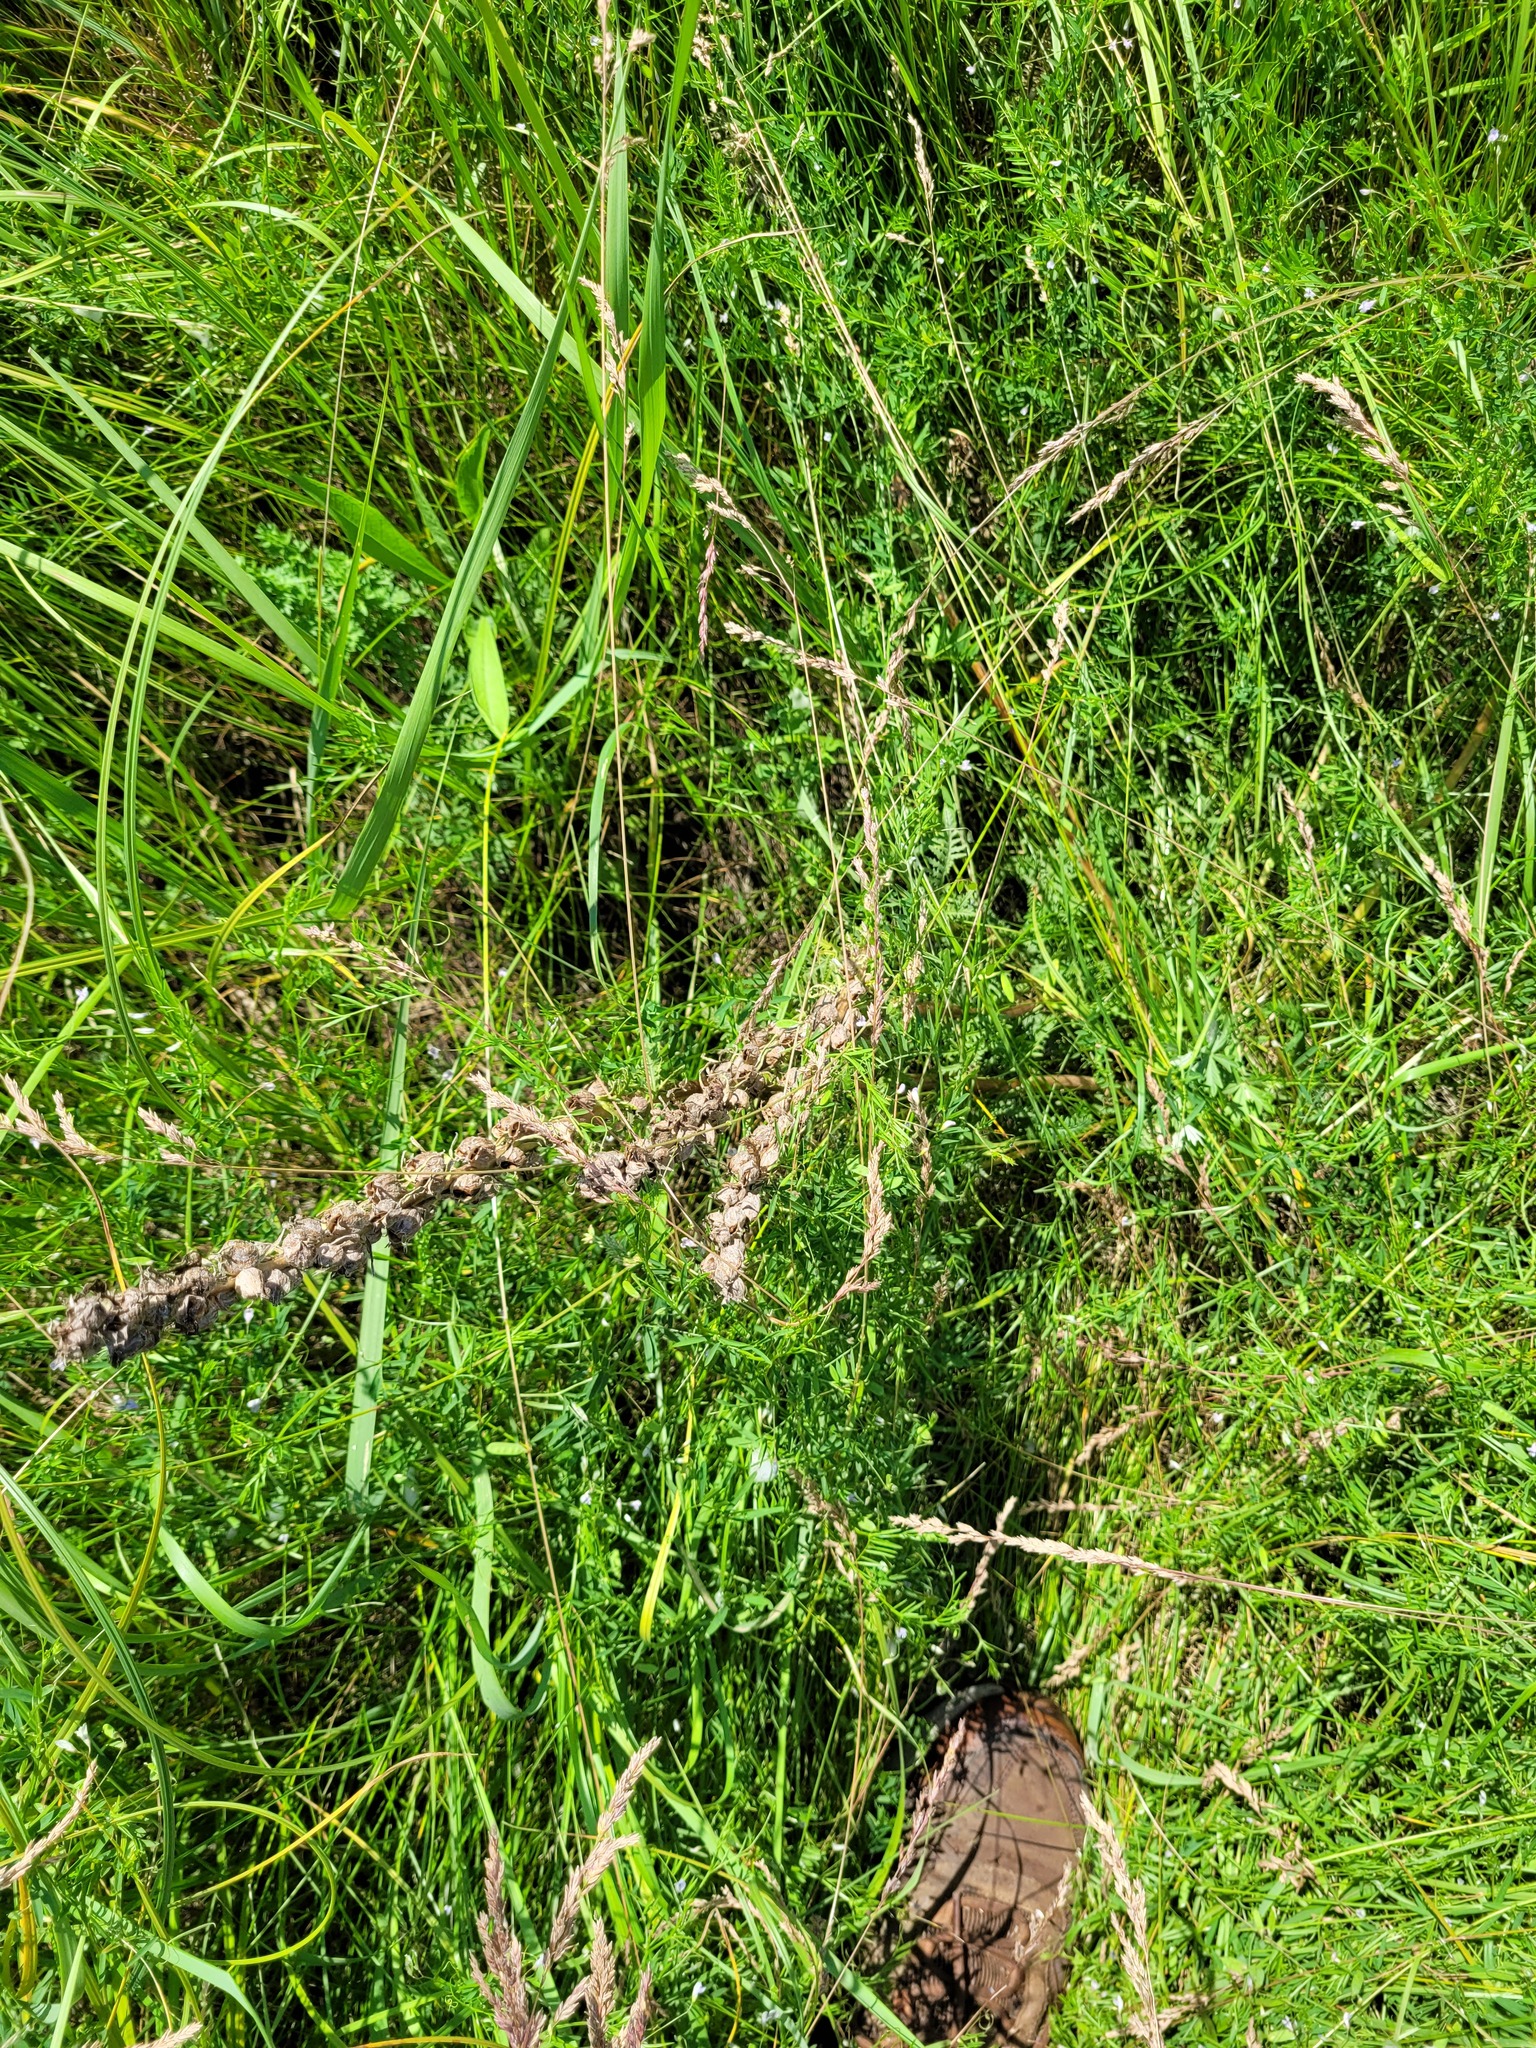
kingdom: Plantae
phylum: Tracheophyta
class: Magnoliopsida
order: Lamiales
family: Orobanchaceae
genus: Pedicularis
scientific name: Pedicularis dasystachys
